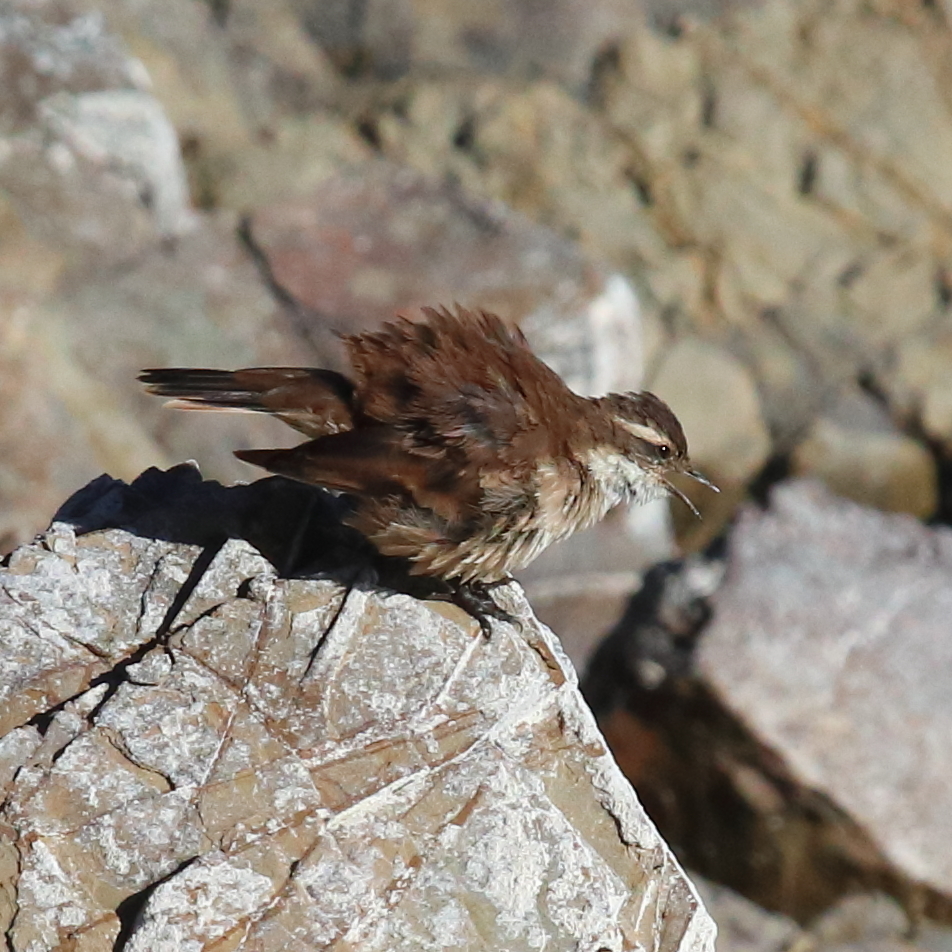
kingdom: Animalia
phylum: Chordata
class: Aves
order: Passeriformes
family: Furnariidae
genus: Cinclodes
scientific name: Cinclodes fuscus
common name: Buff-winged cinclodes
